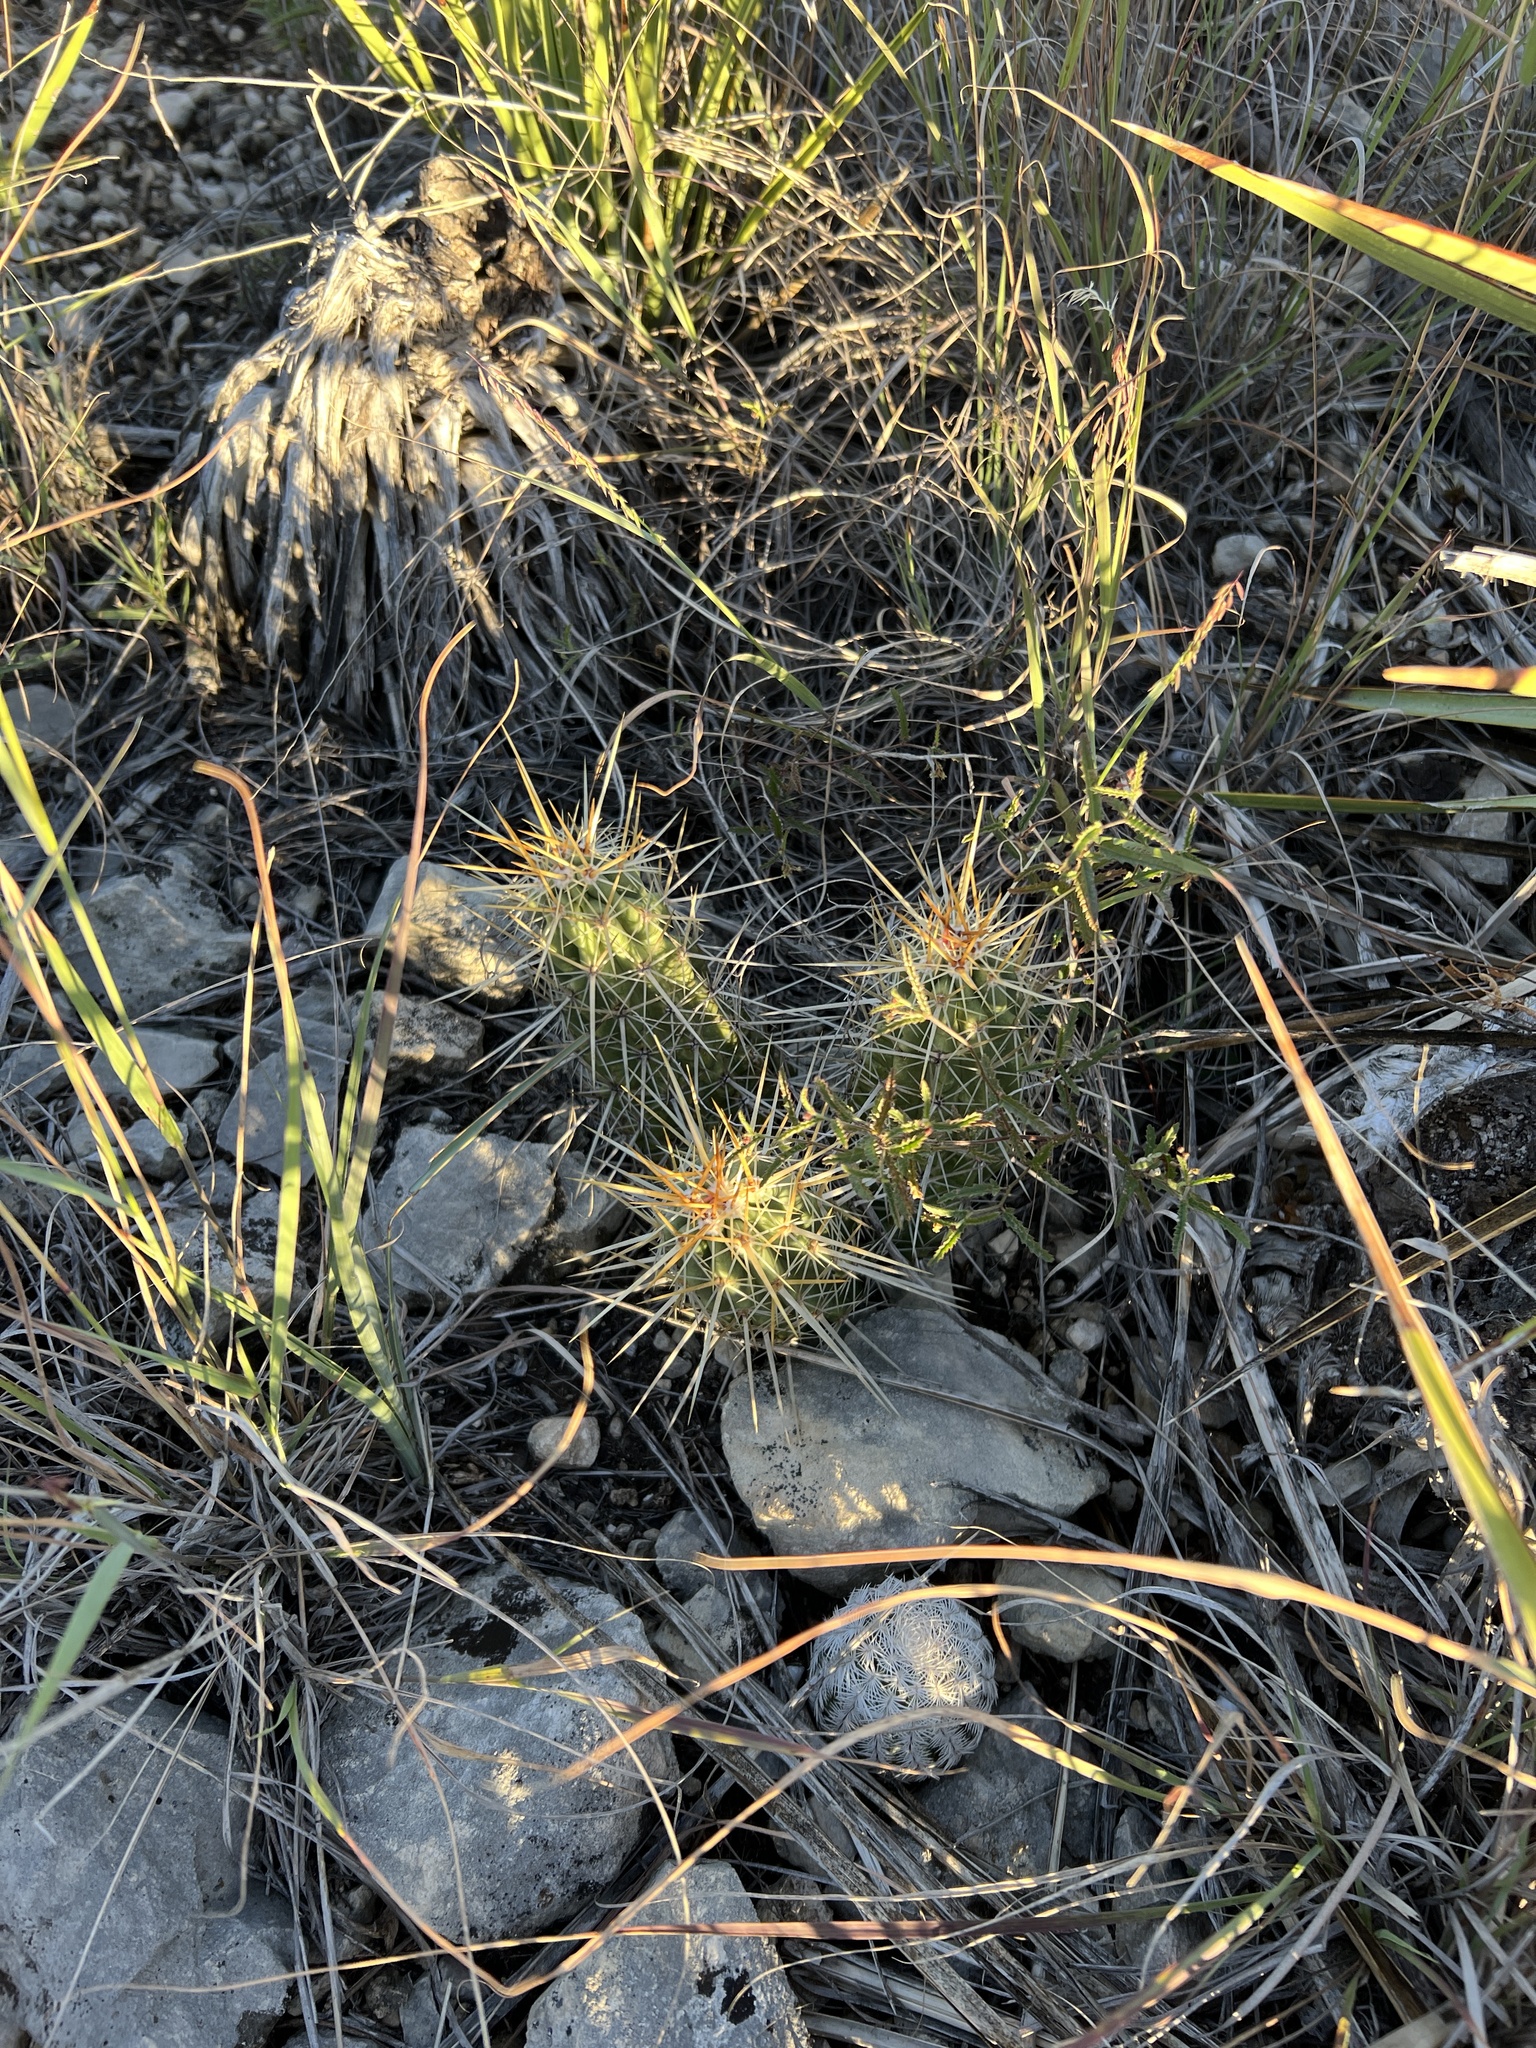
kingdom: Plantae
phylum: Tracheophyta
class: Magnoliopsida
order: Caryophyllales
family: Cactaceae
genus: Echinocereus
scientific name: Echinocereus enneacanthus
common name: Pitaya
